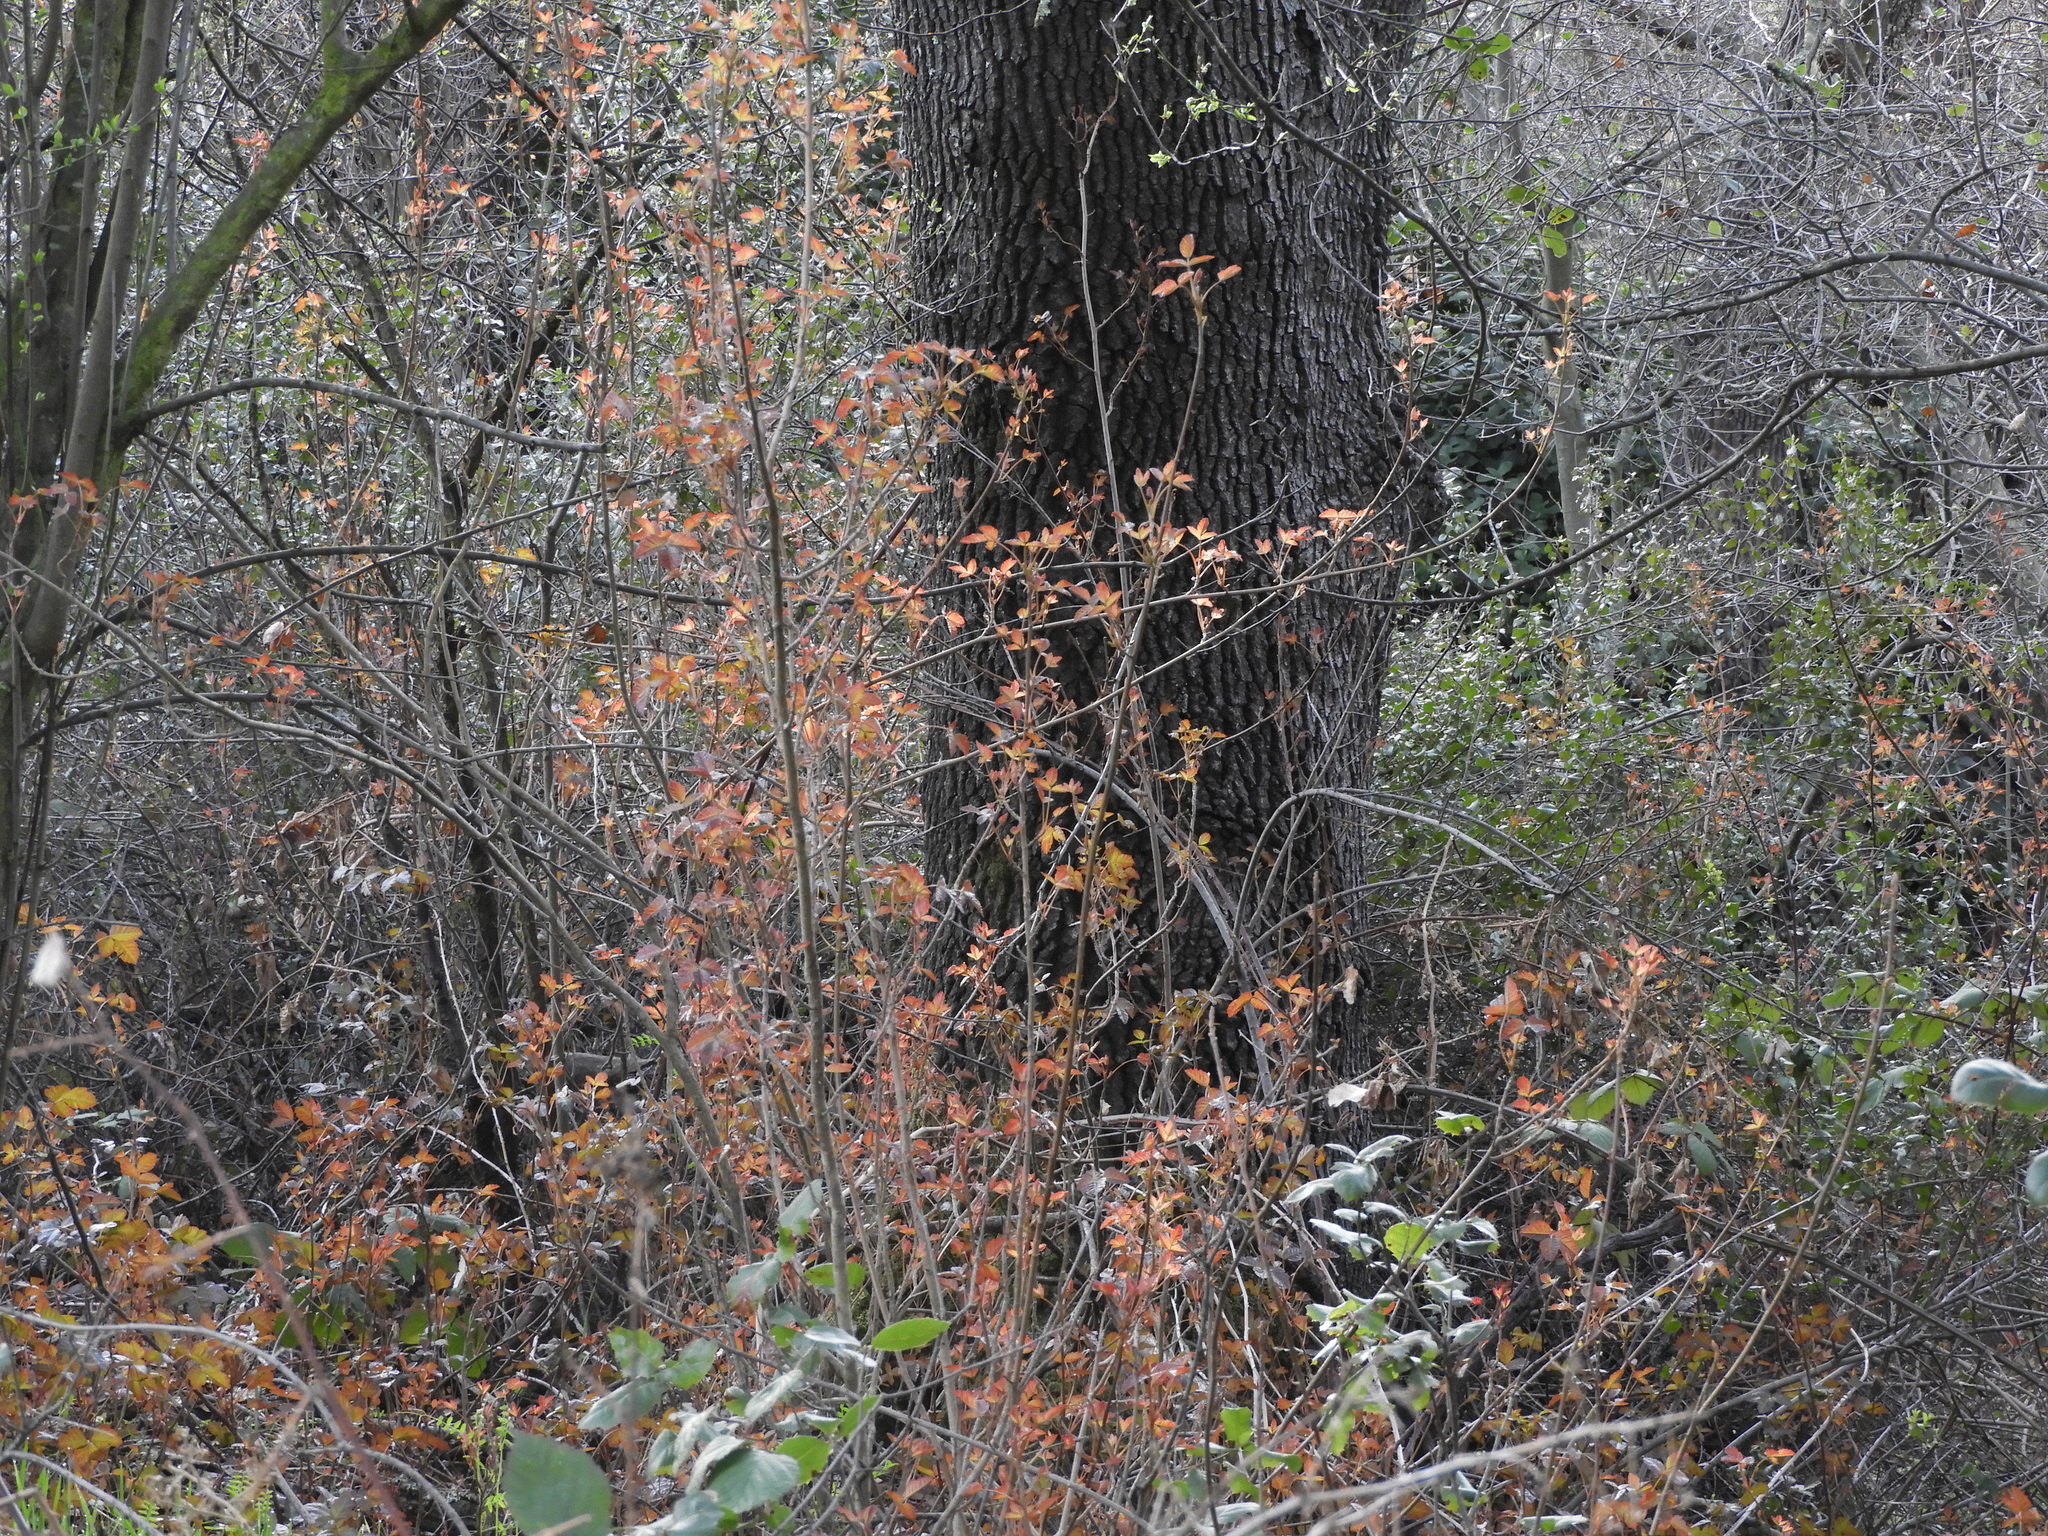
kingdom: Plantae
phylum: Tracheophyta
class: Magnoliopsida
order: Sapindales
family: Anacardiaceae
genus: Toxicodendron
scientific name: Toxicodendron diversilobum
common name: Pacific poison-oak
